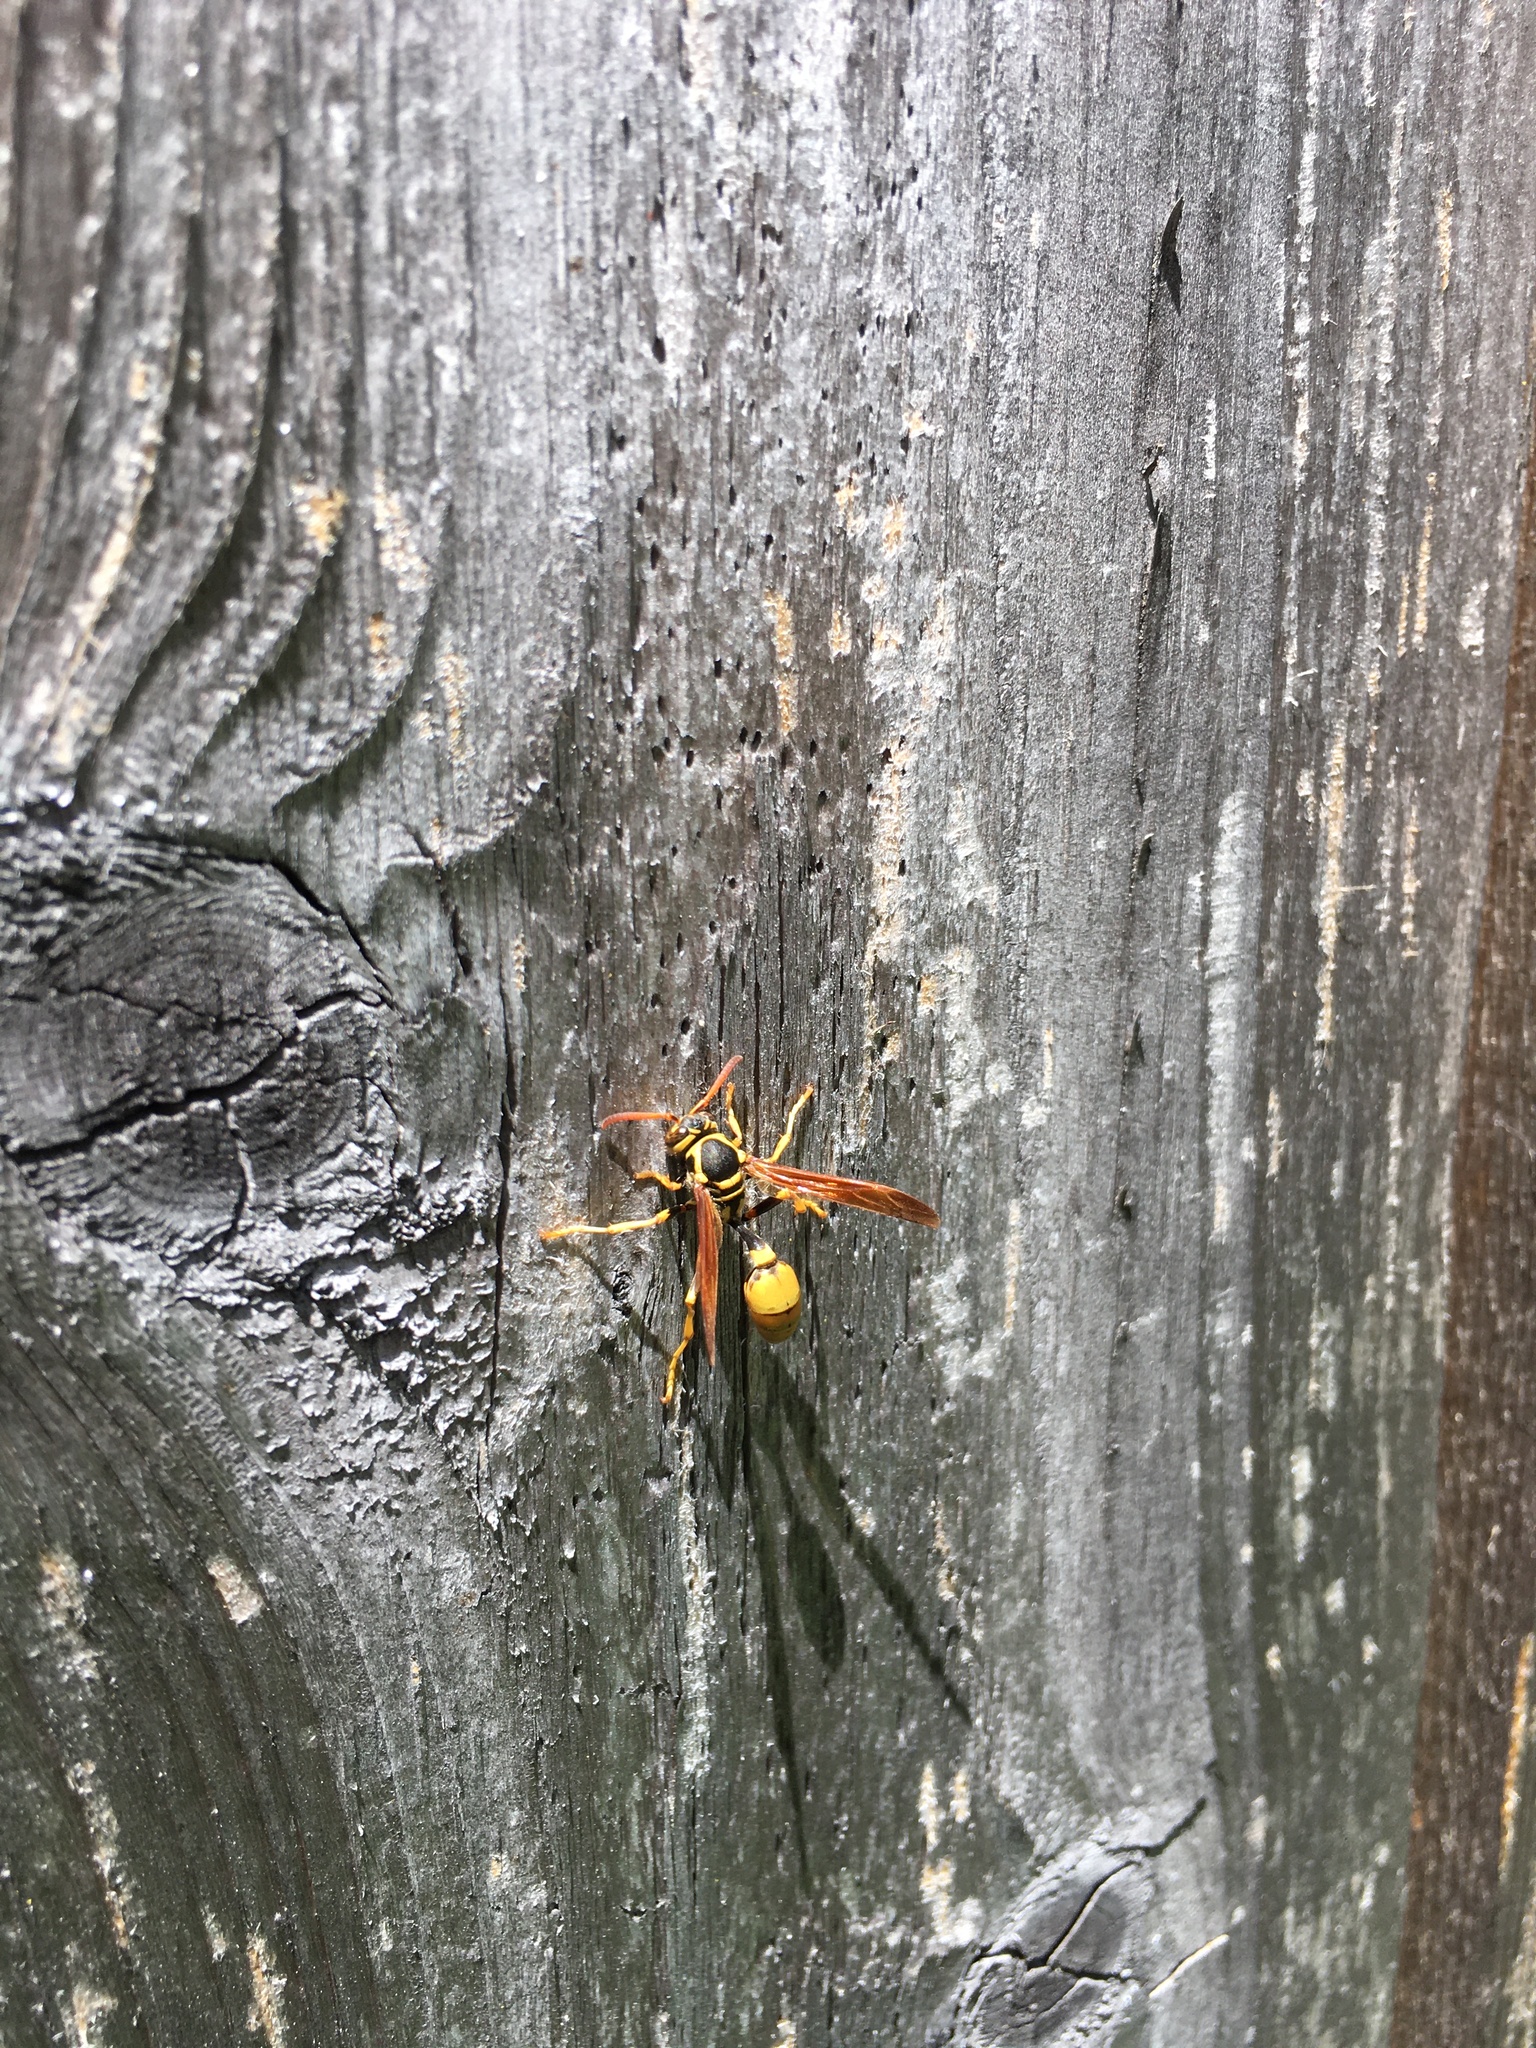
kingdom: Animalia
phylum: Arthropoda
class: Insecta
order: Hymenoptera
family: Vespidae
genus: Mischocyttarus
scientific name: Mischocyttarus flavitarsis
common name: Wasp
